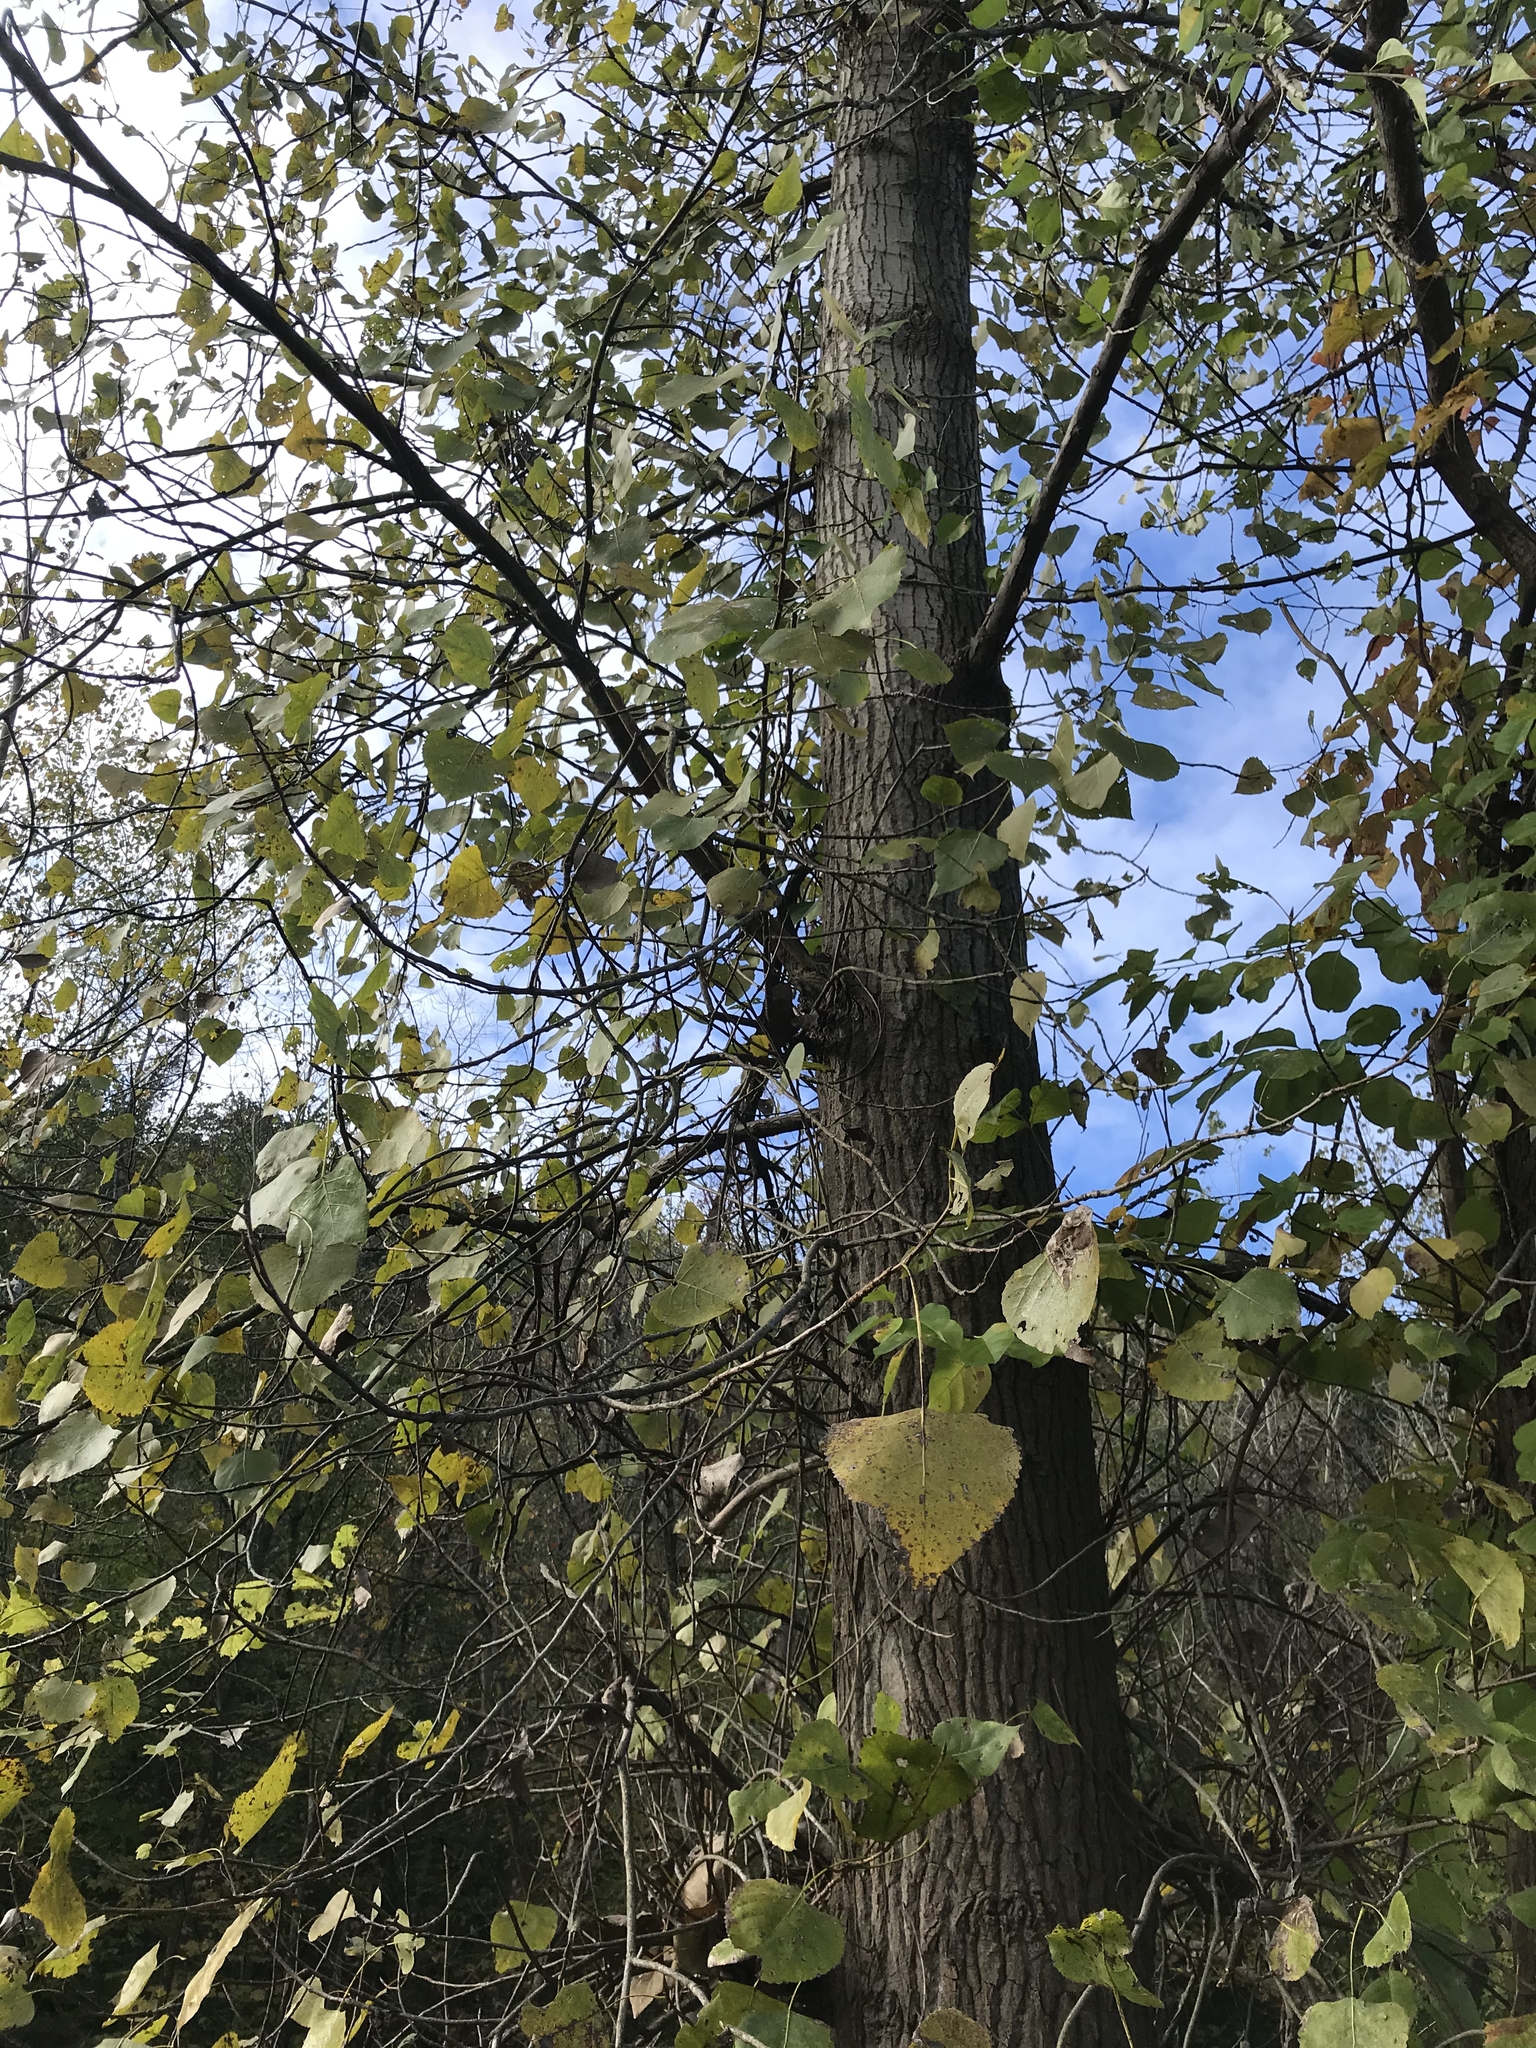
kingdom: Plantae
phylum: Tracheophyta
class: Magnoliopsida
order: Malpighiales
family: Salicaceae
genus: Populus
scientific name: Populus deltoides
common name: Eastern cottonwood
